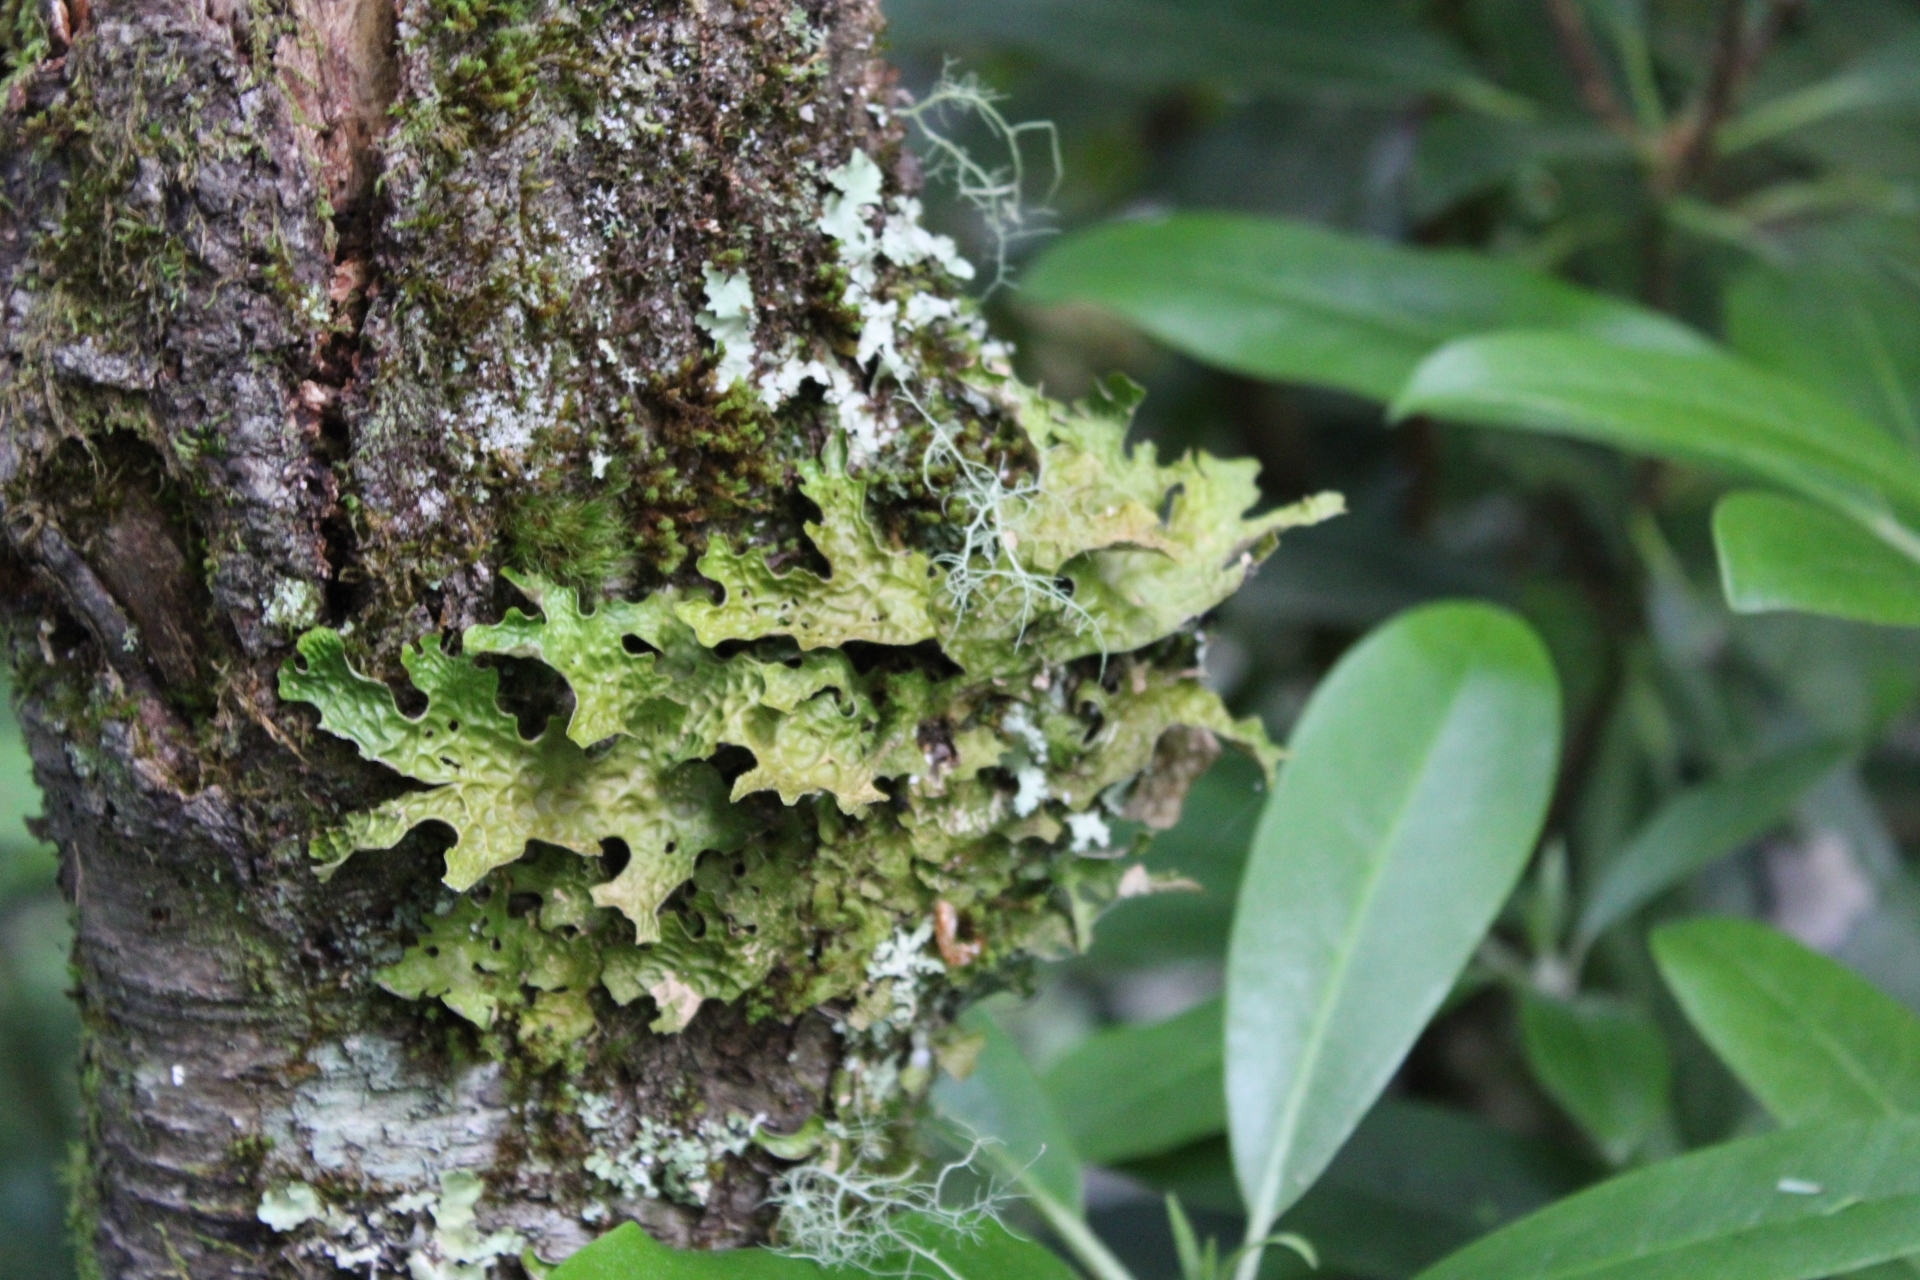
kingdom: Fungi
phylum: Ascomycota
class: Lecanoromycetes
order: Peltigerales
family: Lobariaceae
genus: Lobaria
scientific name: Lobaria pulmonaria
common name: Lungwort
